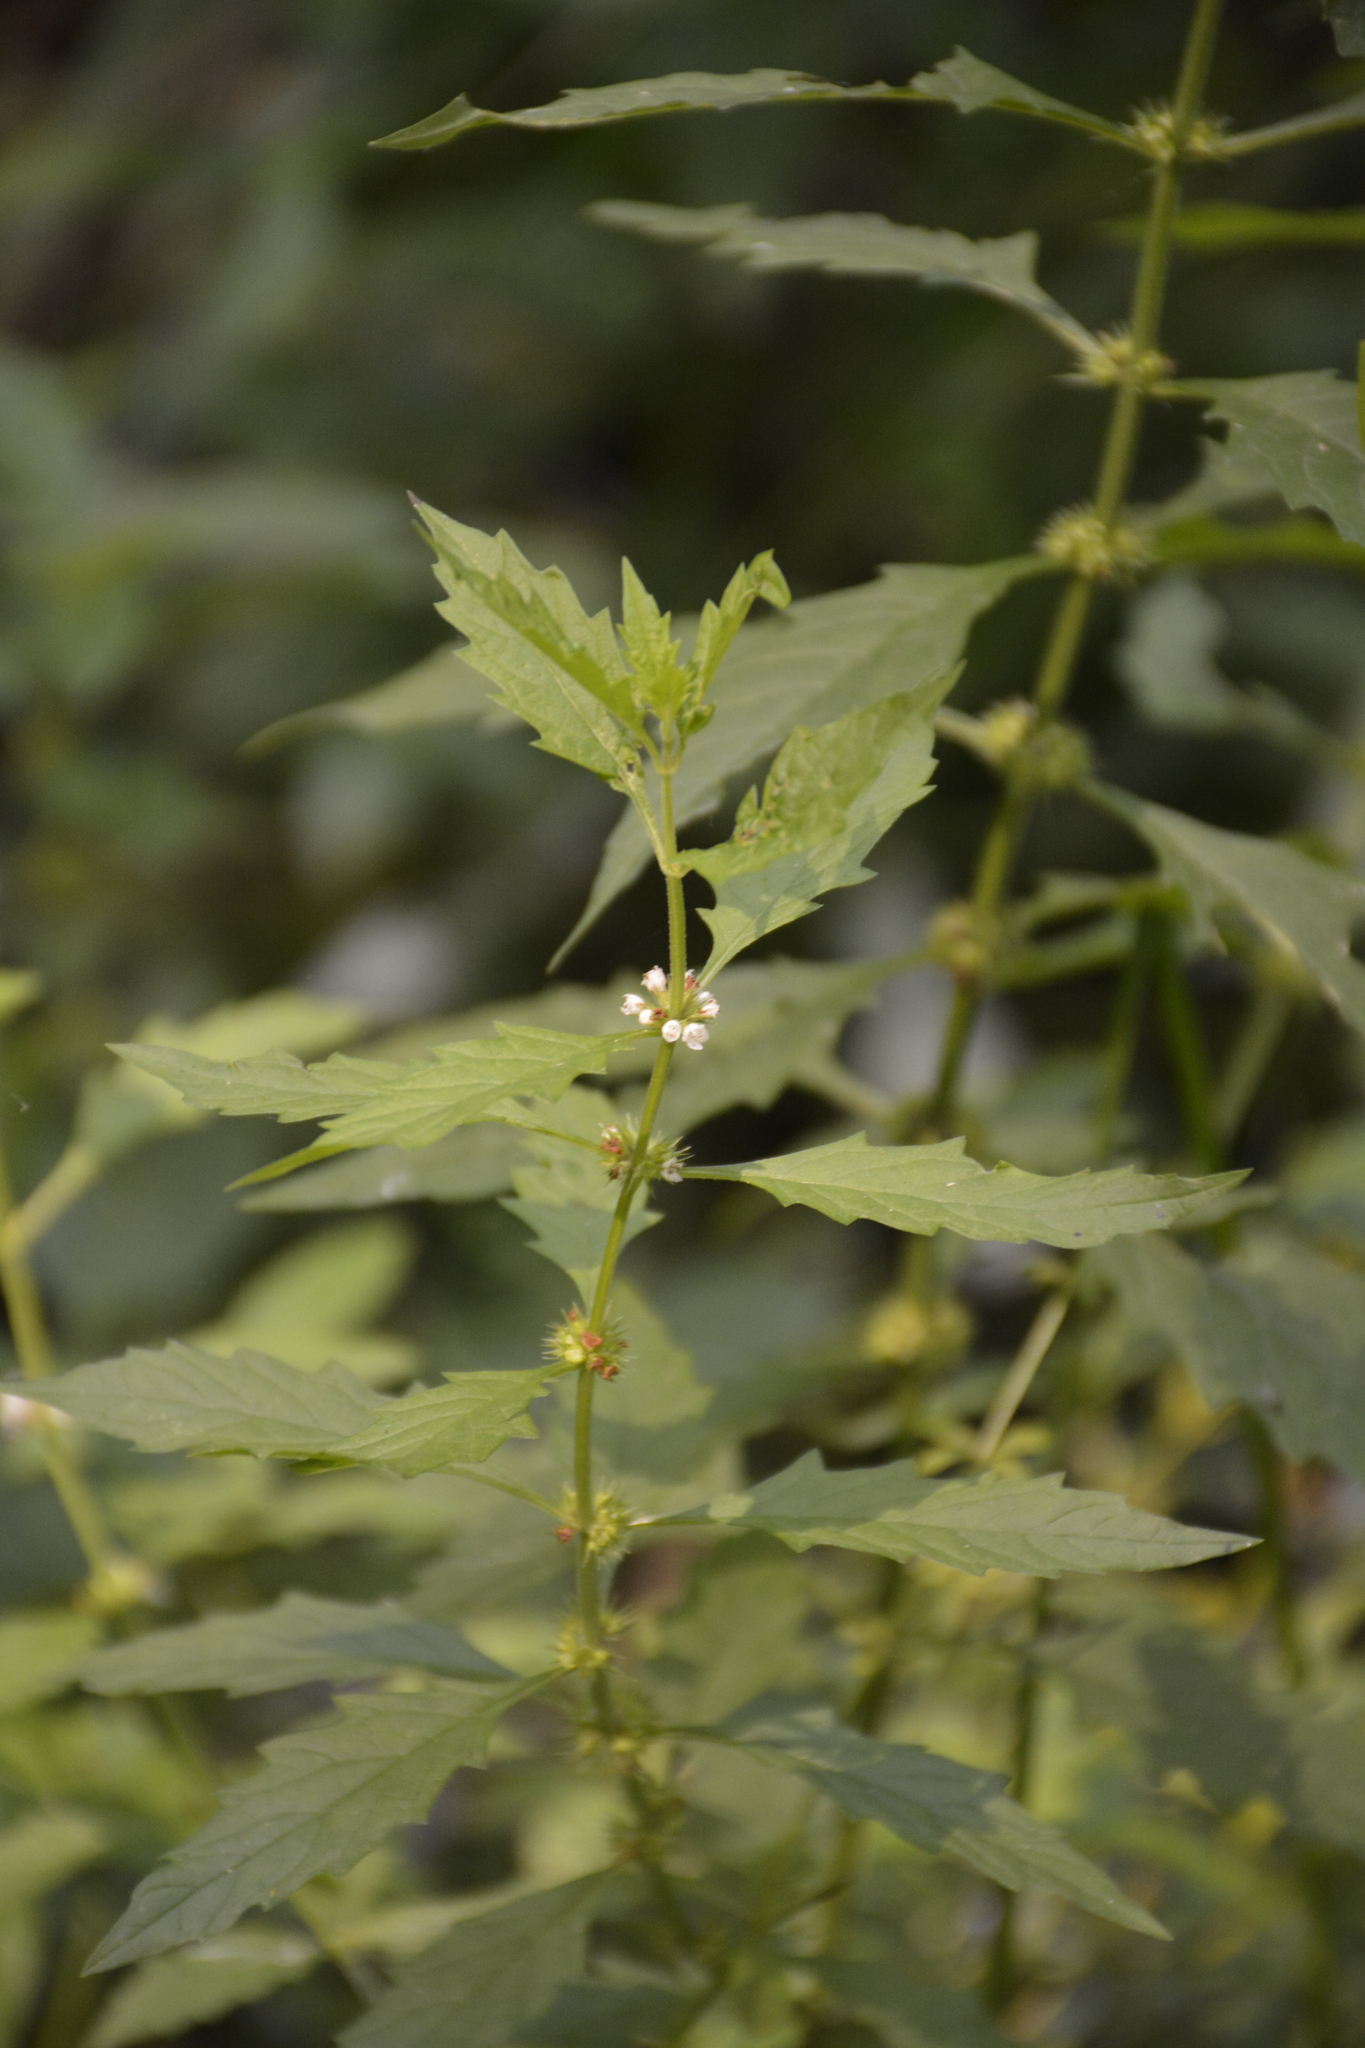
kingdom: Plantae
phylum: Tracheophyta
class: Magnoliopsida
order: Lamiales
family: Lamiaceae
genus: Lycopus
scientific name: Lycopus europaeus
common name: European bugleweed
